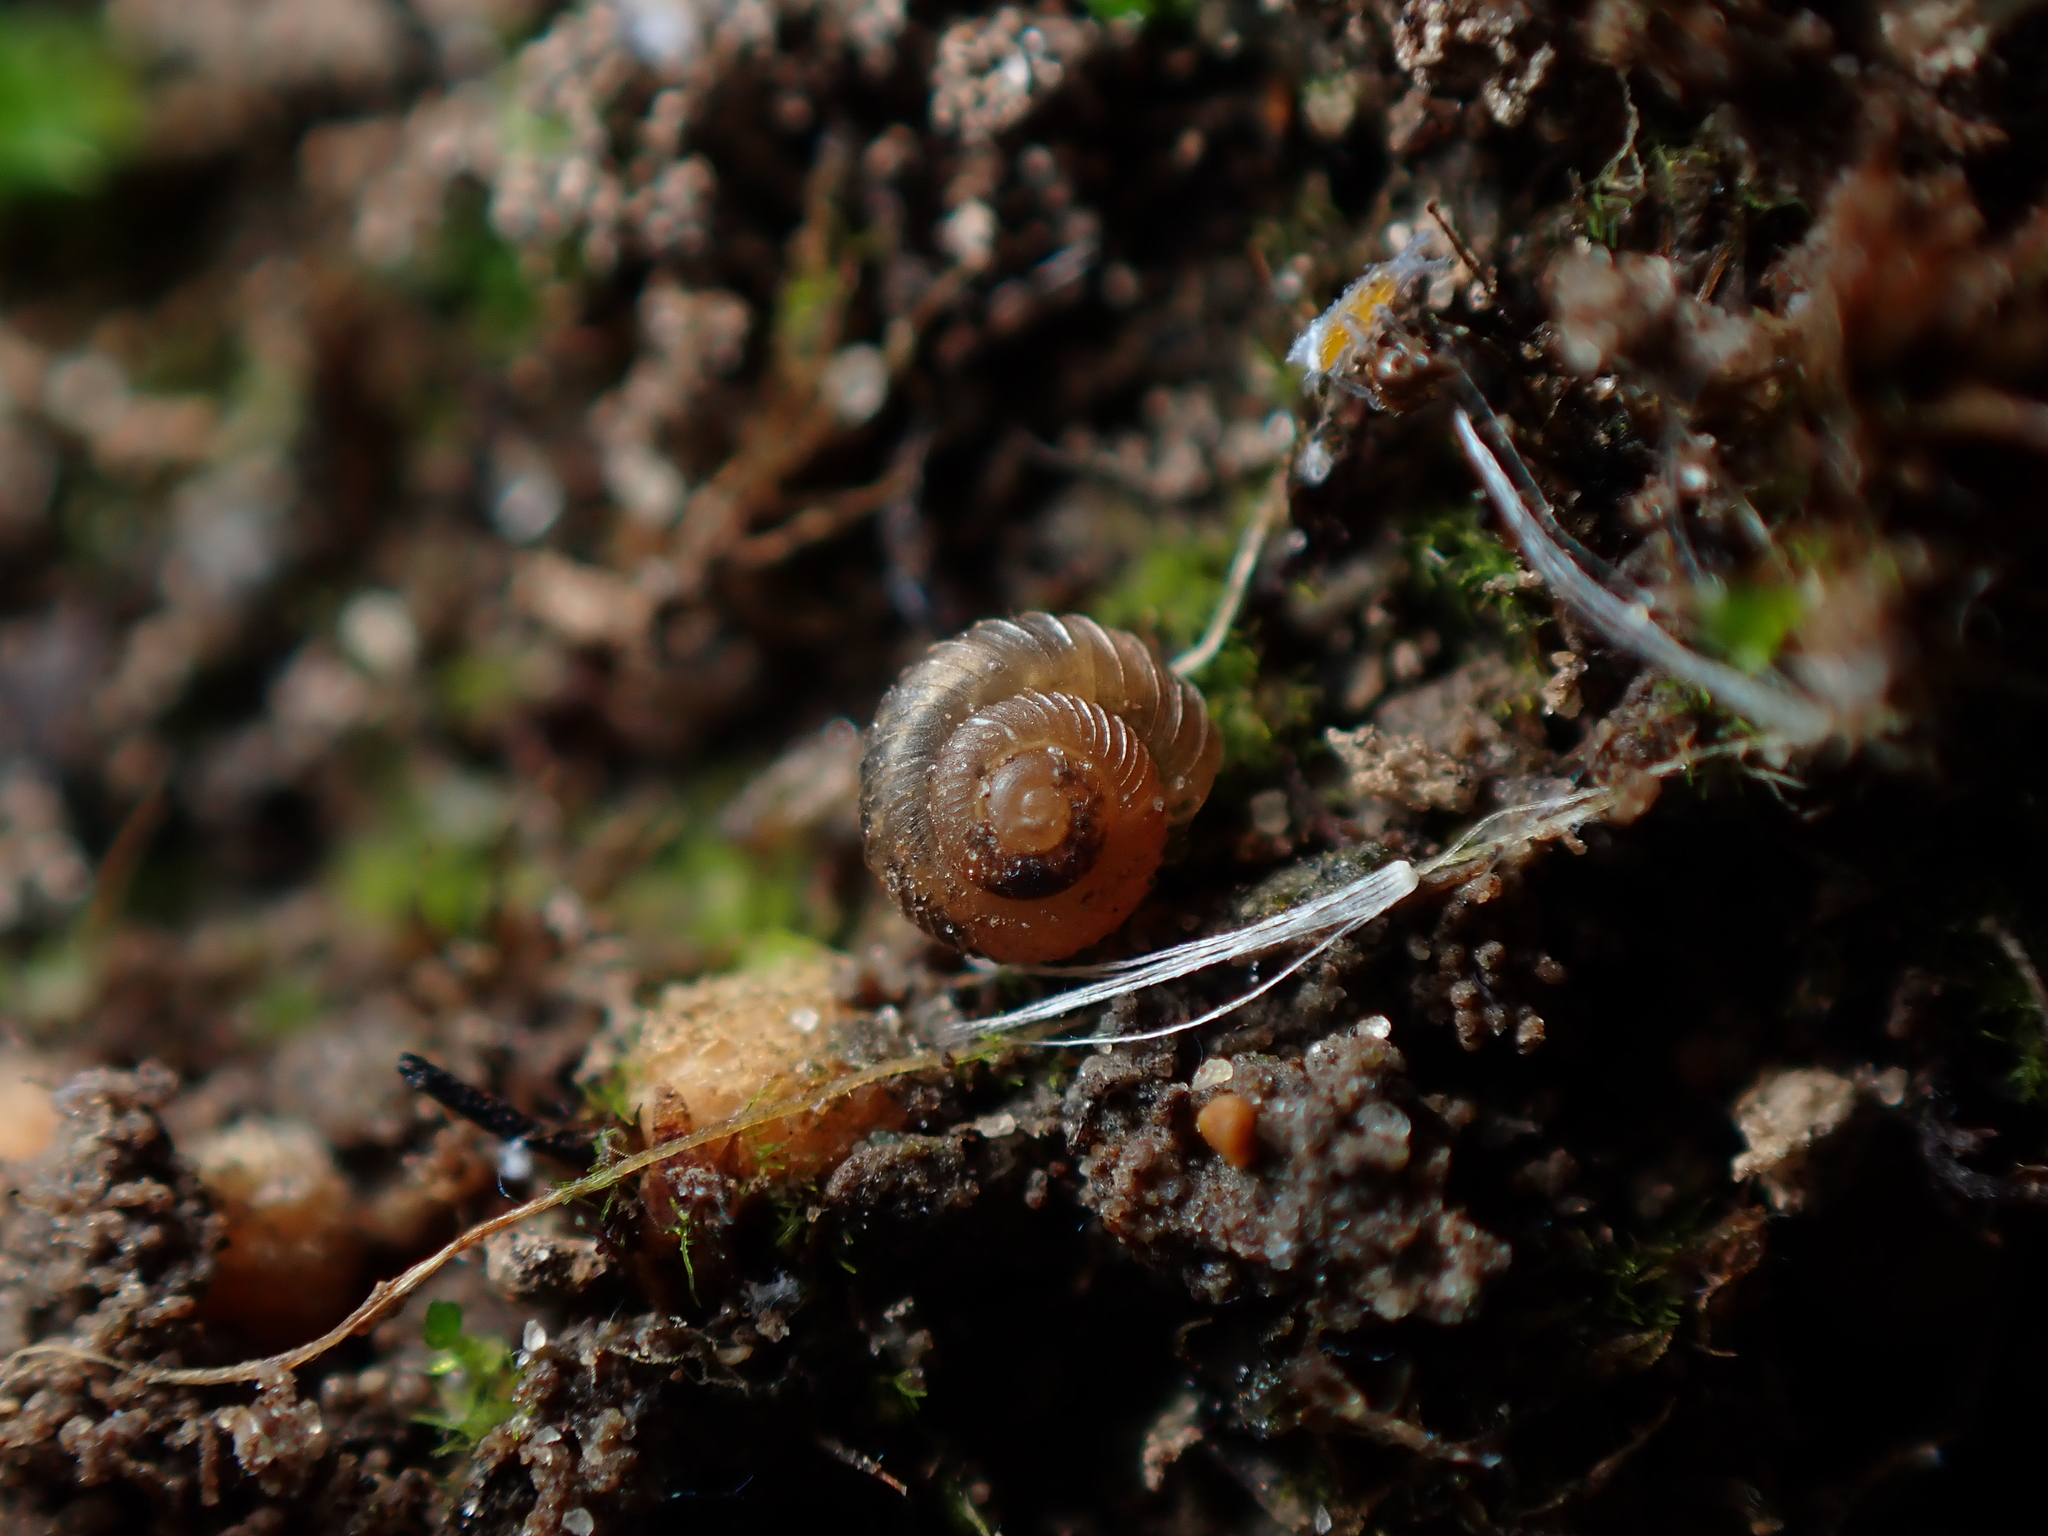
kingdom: Animalia
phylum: Mollusca
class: Gastropoda
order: Stylommatophora
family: Punctidae
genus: Paralaoma
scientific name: Paralaoma servilis
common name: Pinhead spot
